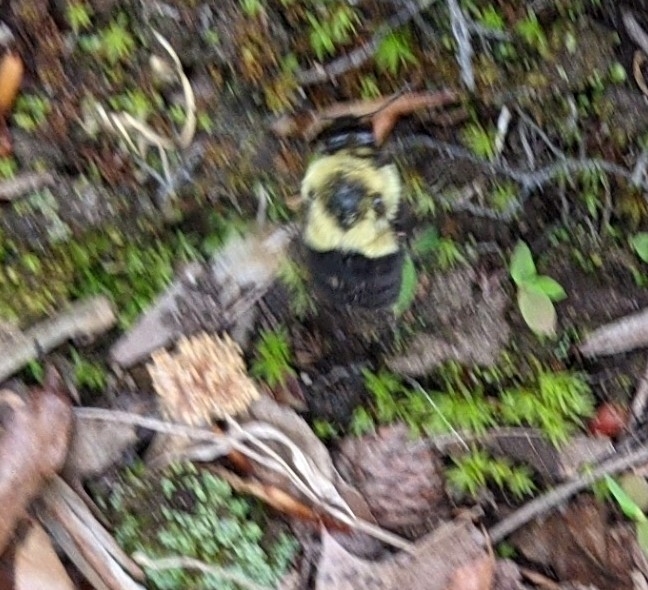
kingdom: Animalia
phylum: Arthropoda
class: Insecta
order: Hymenoptera
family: Apidae
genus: Bombus
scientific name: Bombus impatiens
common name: Common eastern bumble bee
